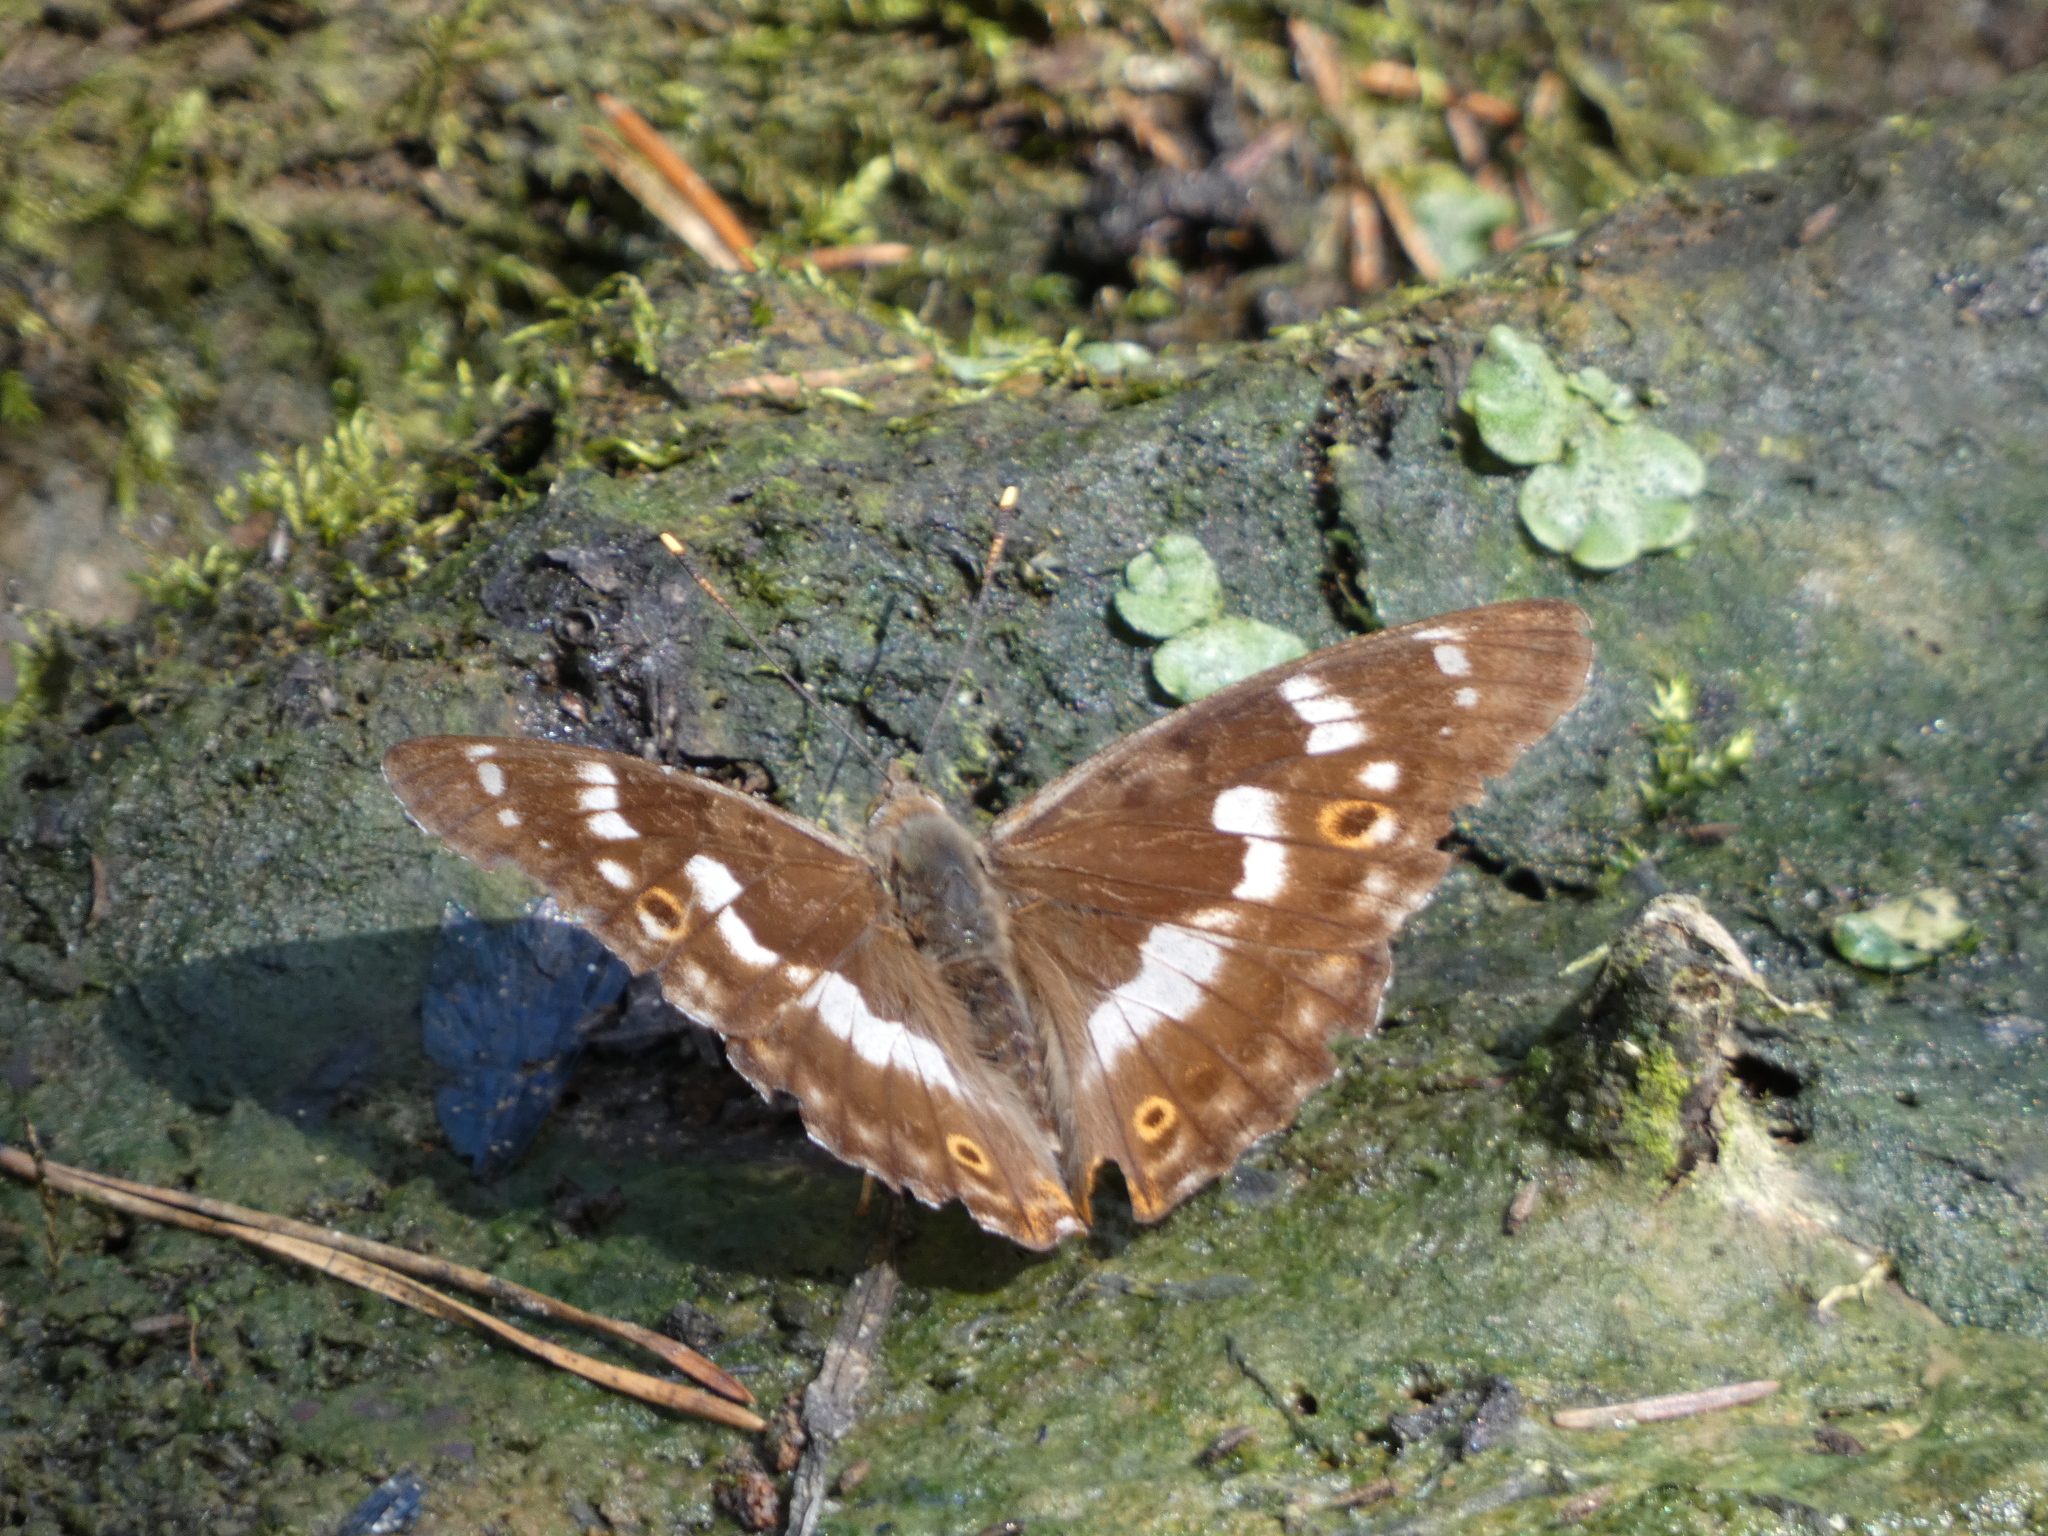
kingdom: Animalia
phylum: Arthropoda
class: Insecta
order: Lepidoptera
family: Nymphalidae
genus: Apatura
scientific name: Apatura ilia
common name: Lesser purple emperor
